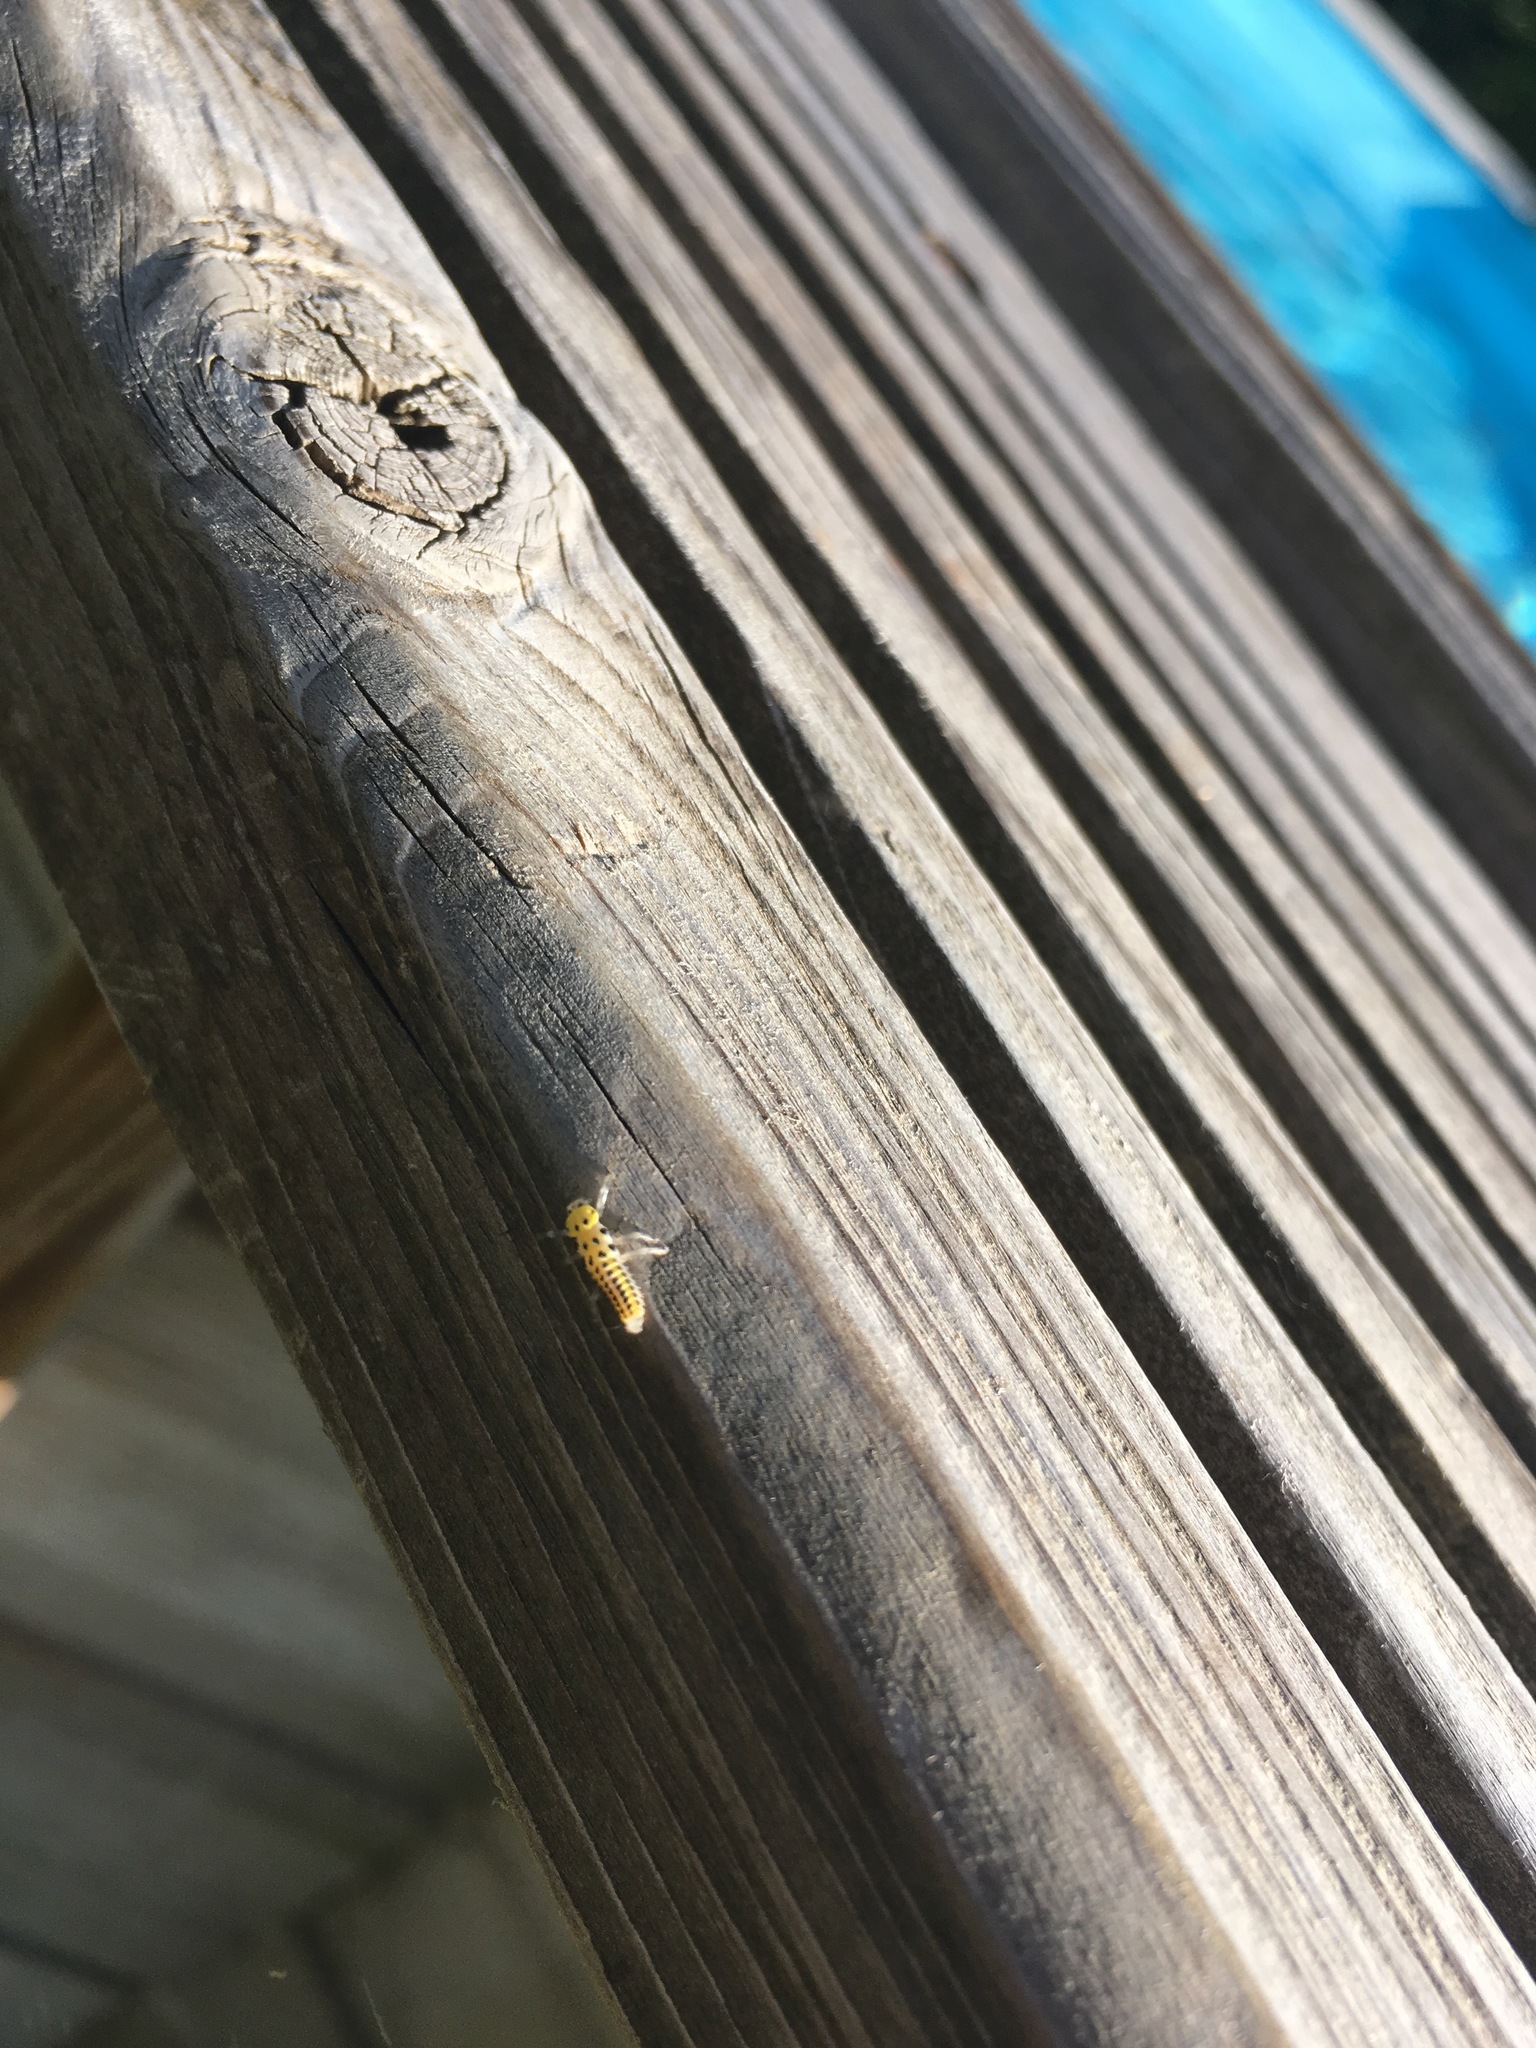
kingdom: Animalia
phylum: Arthropoda
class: Insecta
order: Coleoptera
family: Coccinellidae
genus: Halyzia
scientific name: Halyzia sedecimguttata
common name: Orange ladybird
